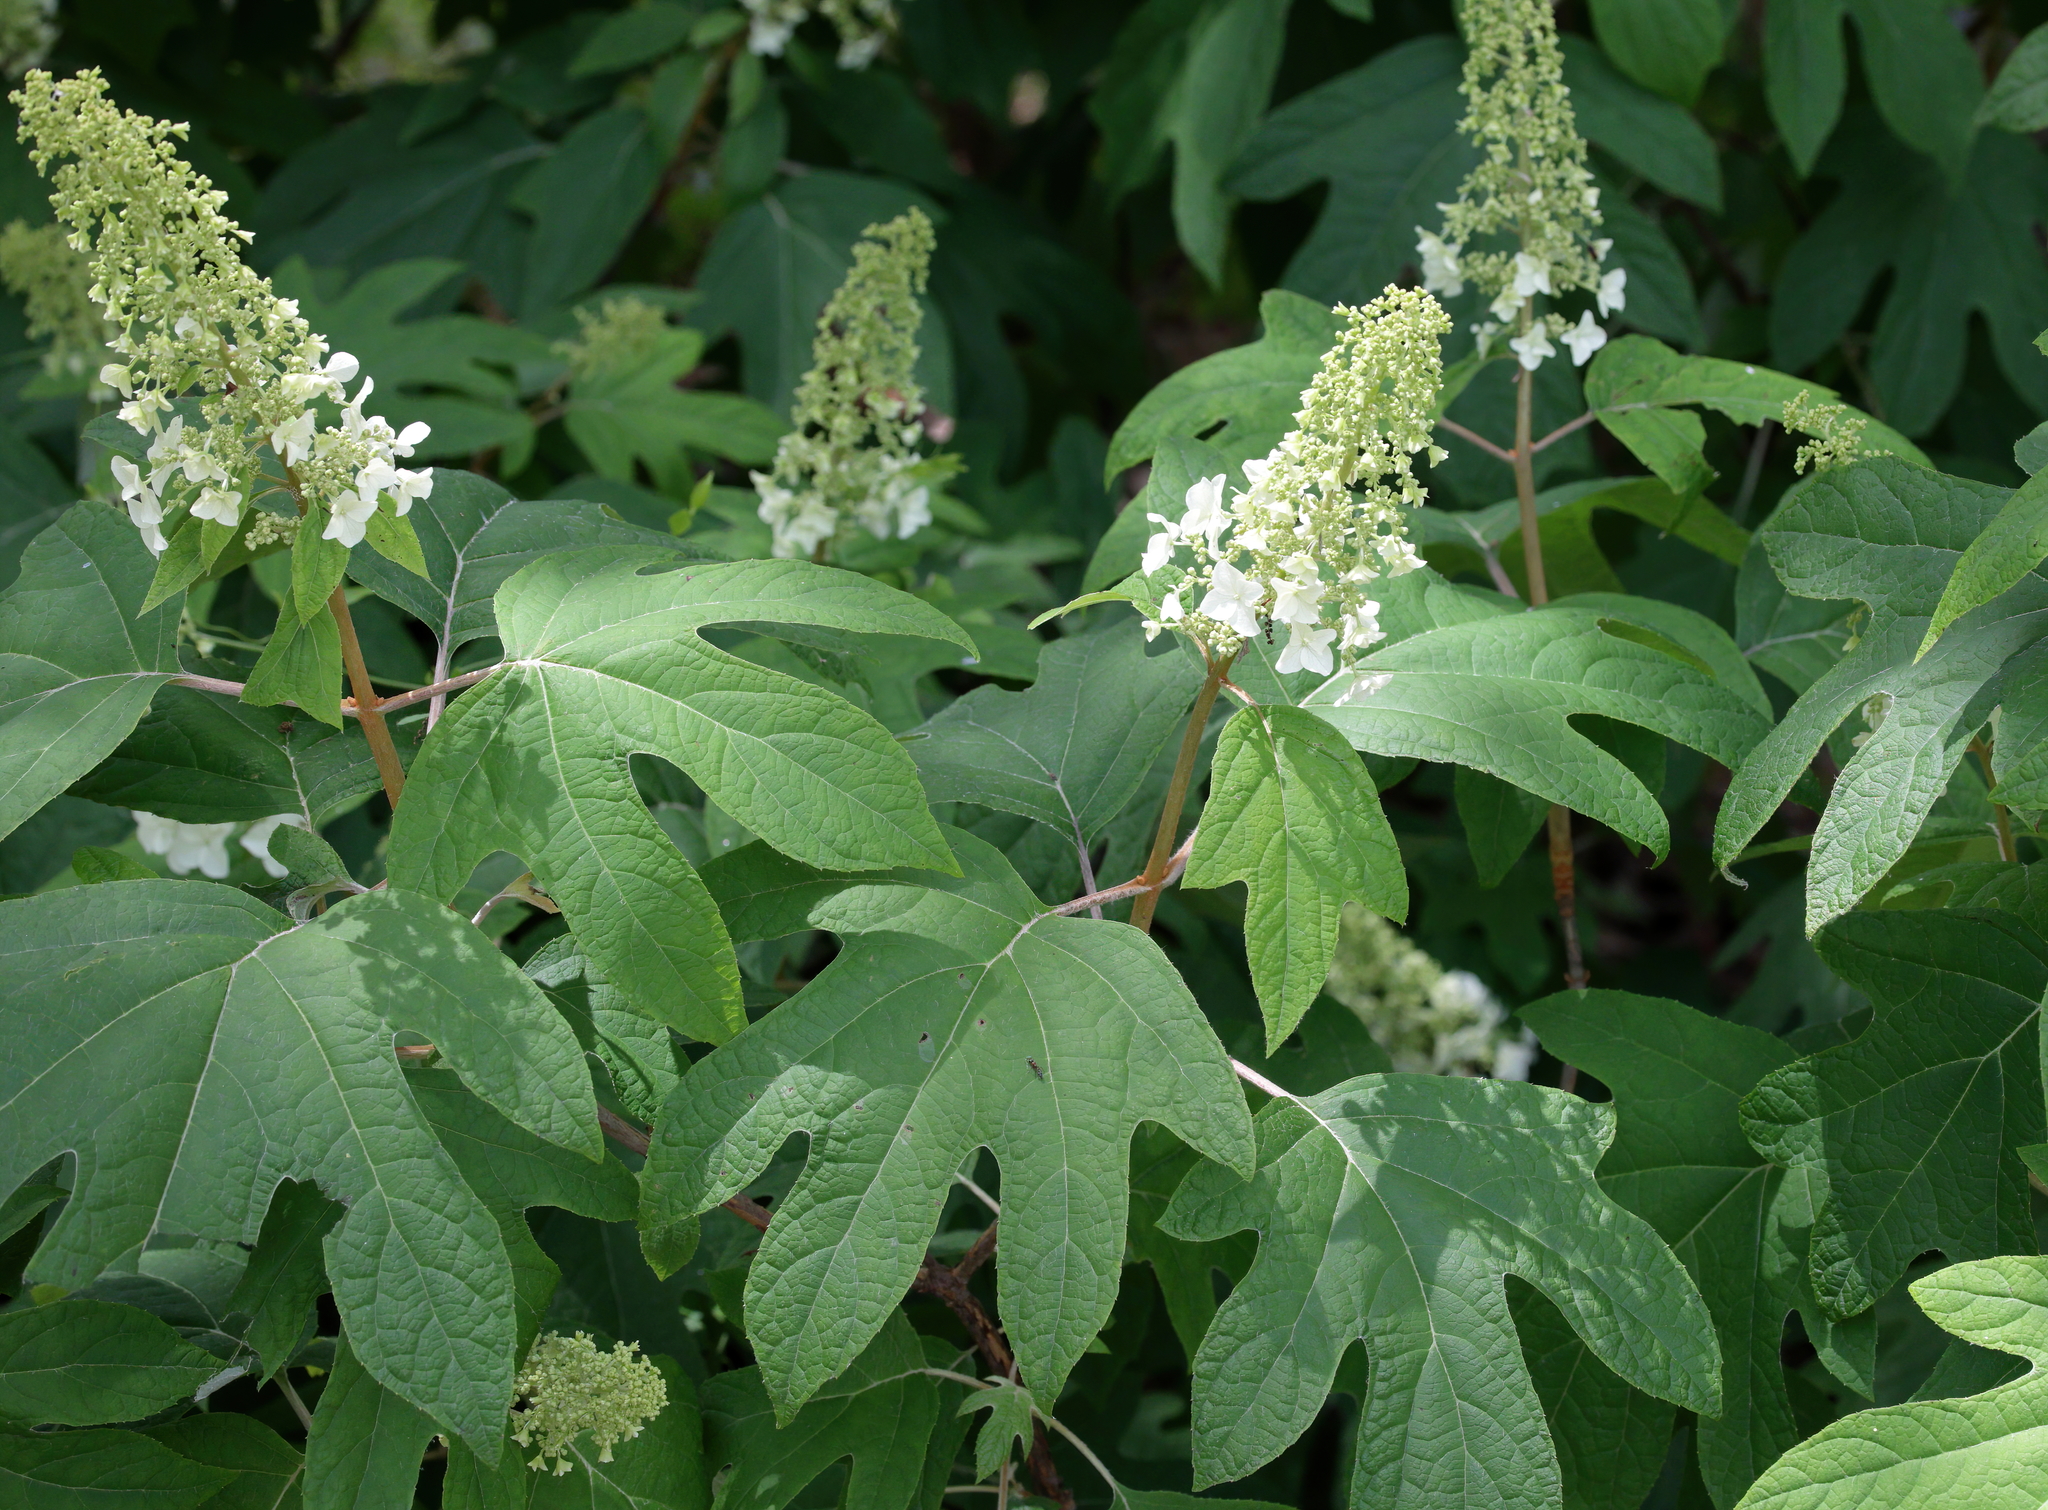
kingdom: Plantae
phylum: Tracheophyta
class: Magnoliopsida
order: Cornales
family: Hydrangeaceae
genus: Hydrangea
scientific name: Hydrangea quercifolia
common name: Oak-leaf hydrangea
